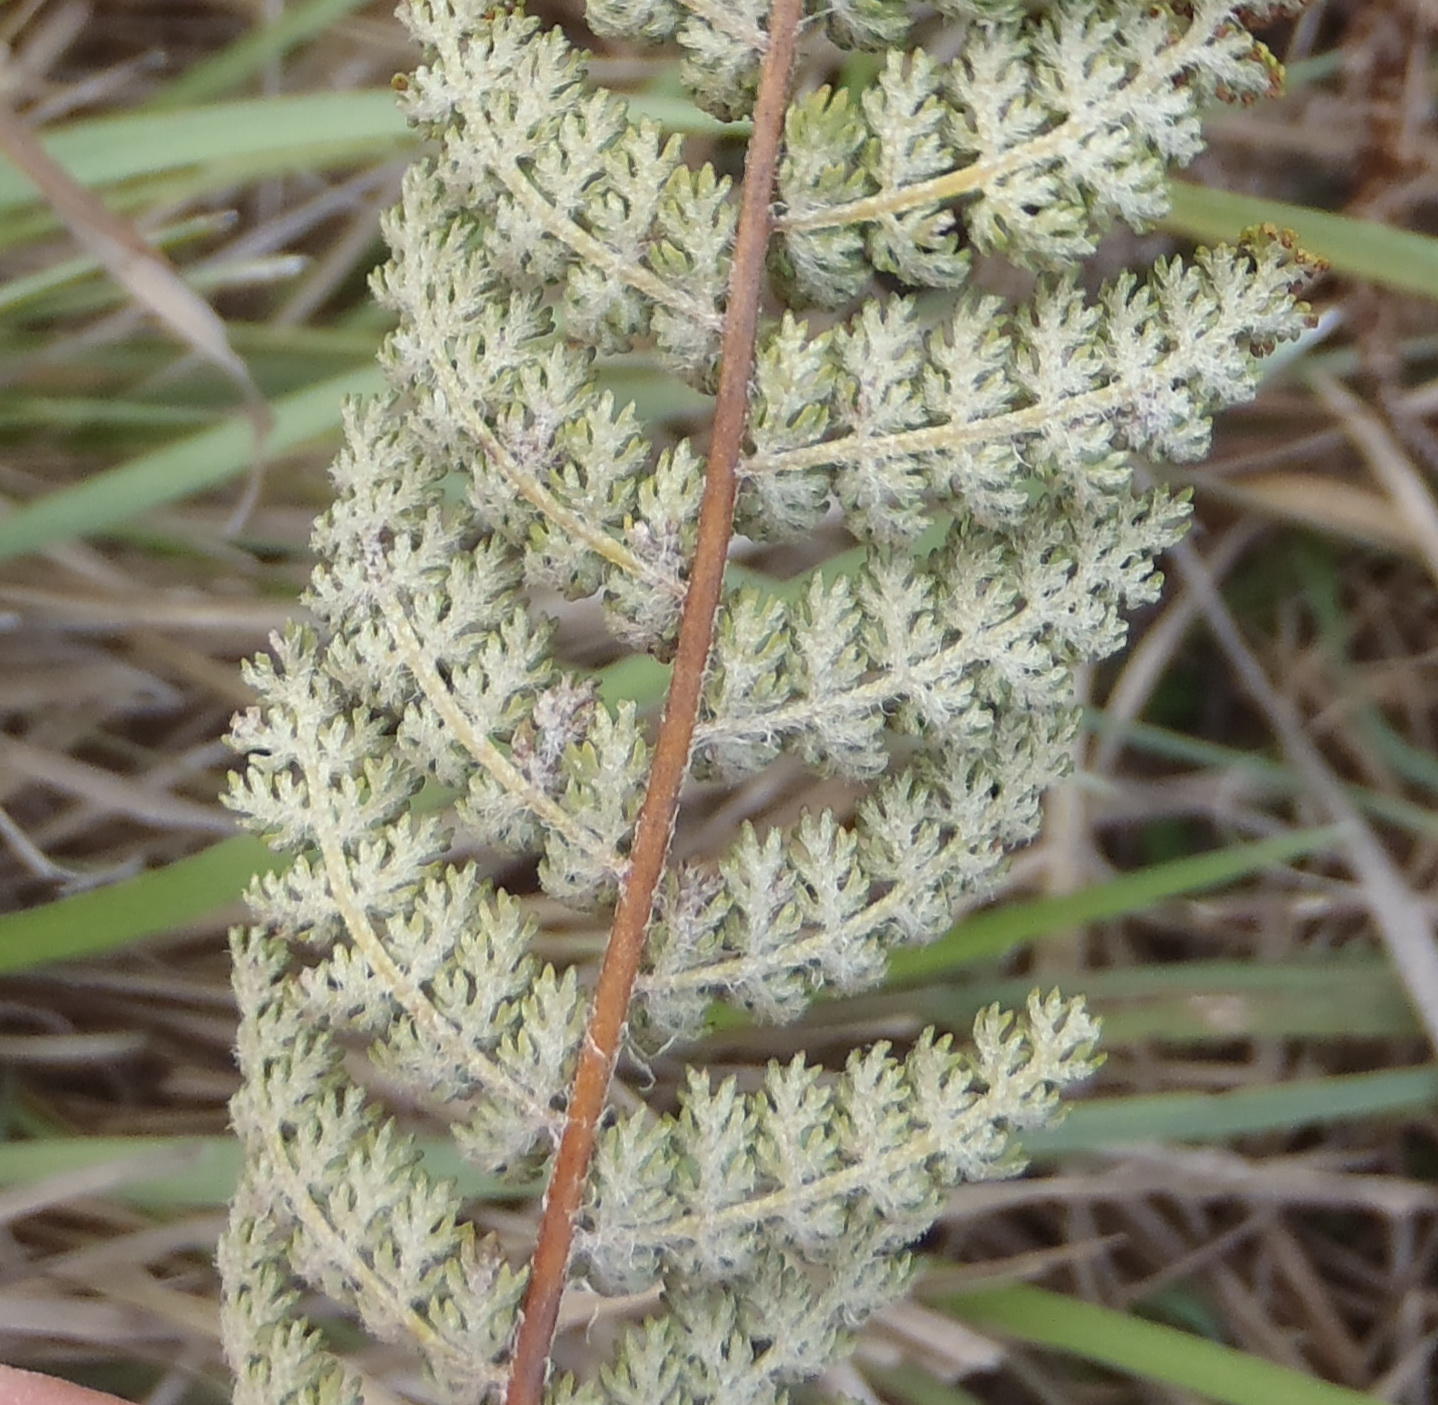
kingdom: Plantae
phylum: Tracheophyta
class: Polypodiopsida
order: Schizaeales
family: Anemiaceae
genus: Anemia
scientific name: Anemia caffrorum
